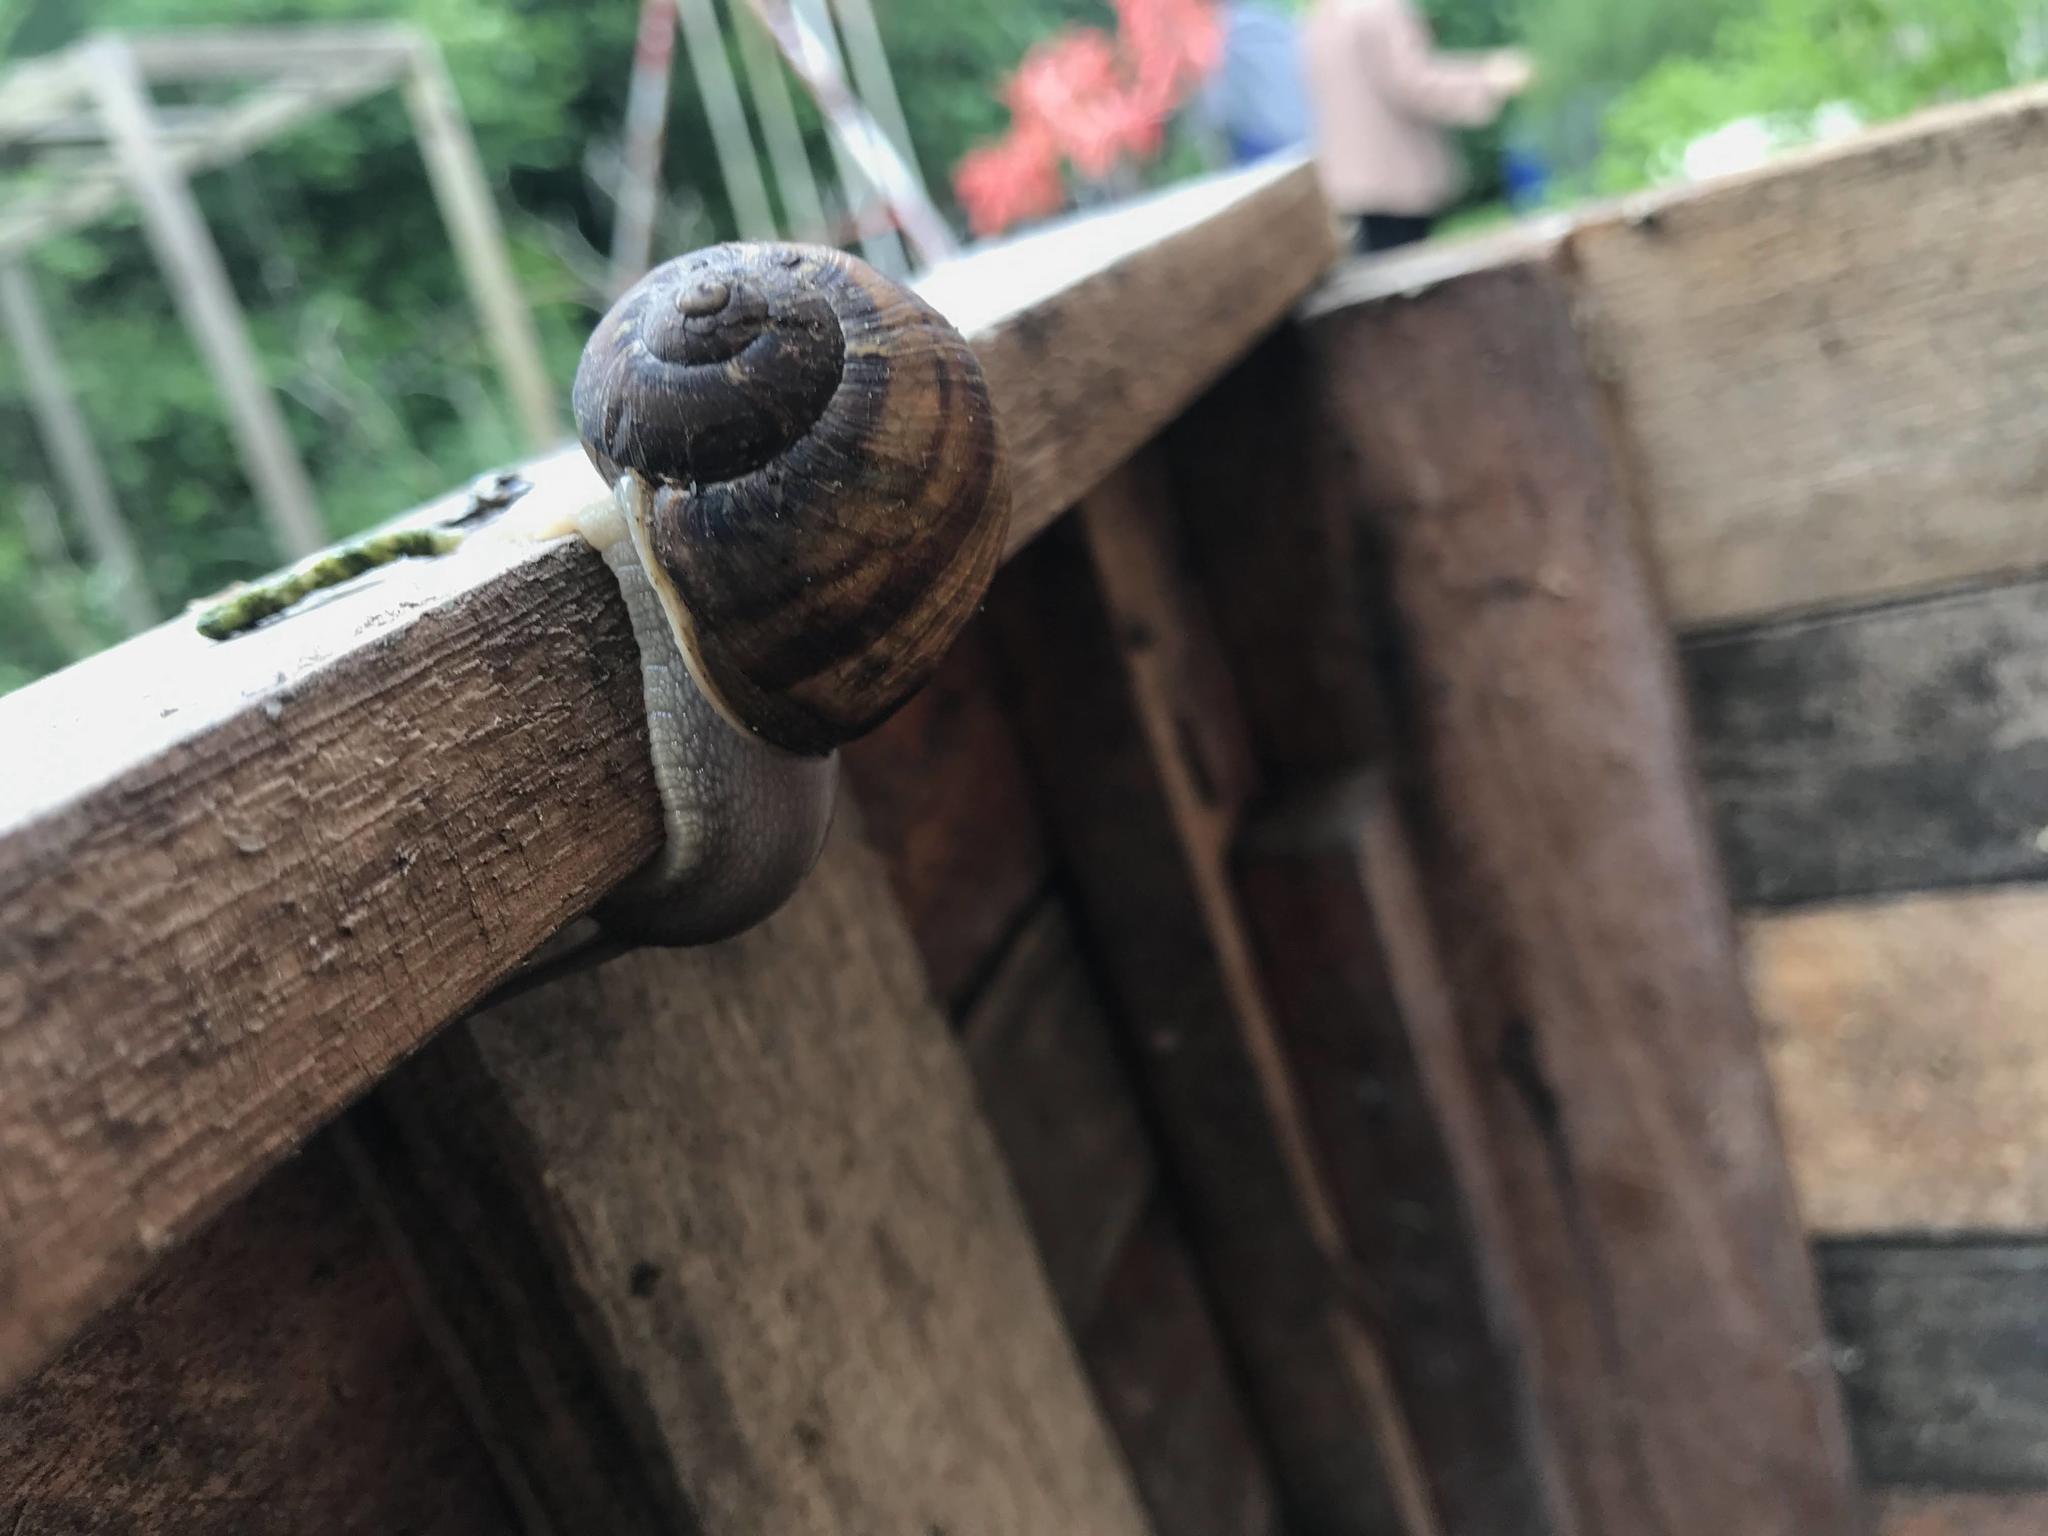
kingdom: Animalia
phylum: Mollusca
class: Gastropoda
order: Stylommatophora
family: Helicidae
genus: Cornu
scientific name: Cornu aspersum
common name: Brown garden snail
